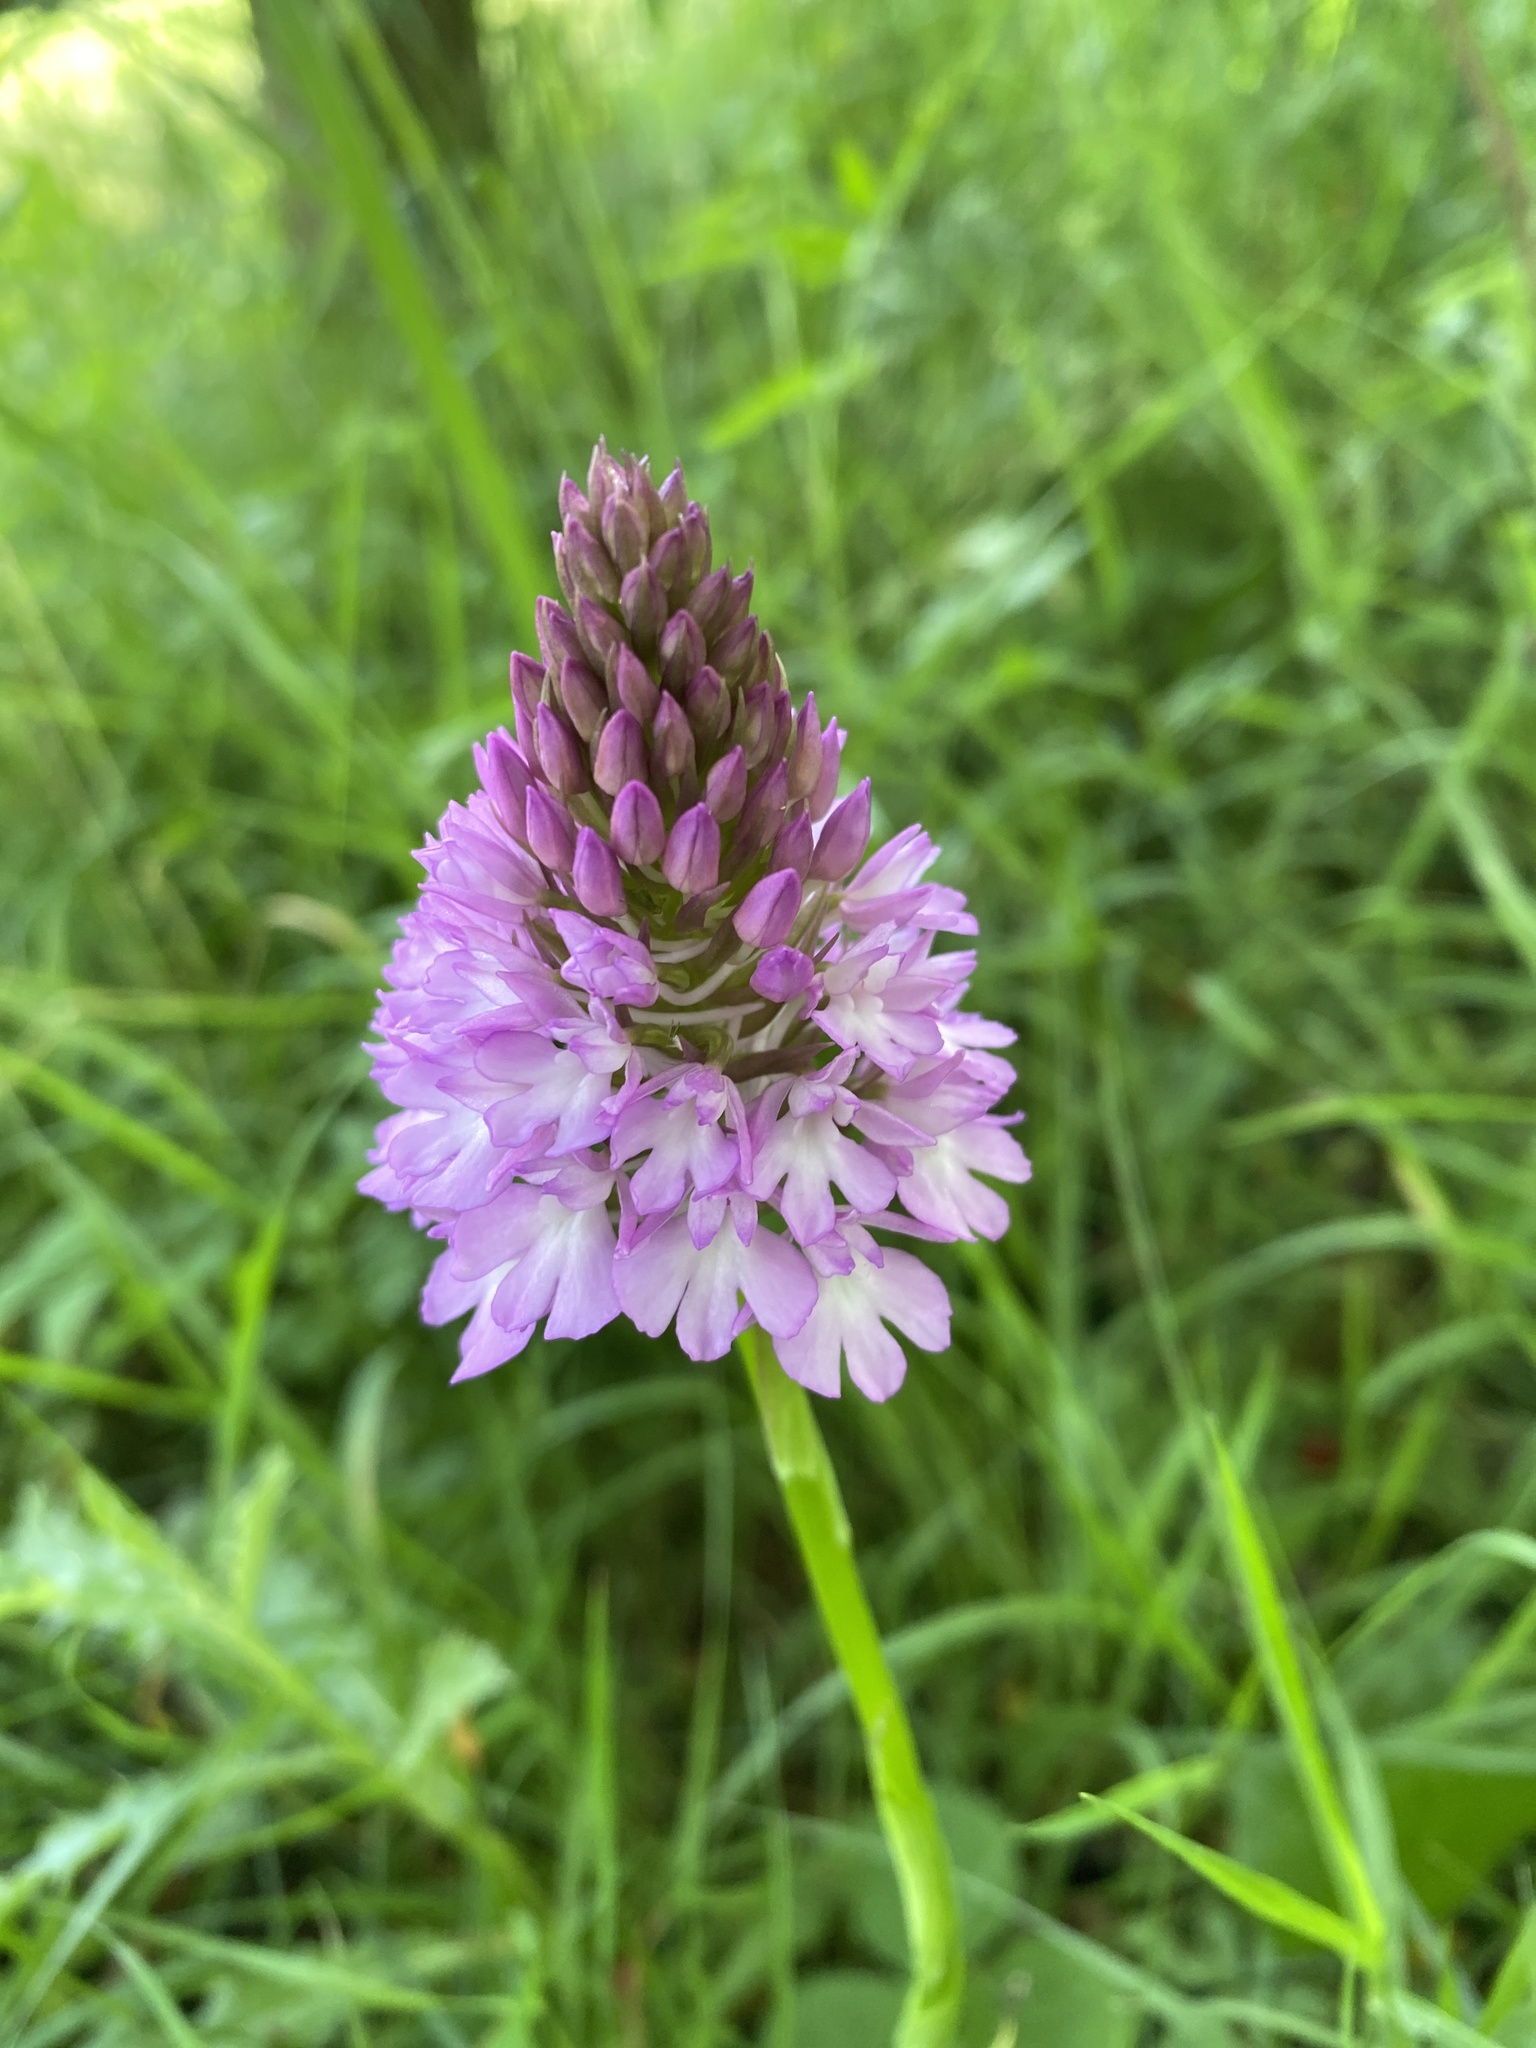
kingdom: Plantae
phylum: Tracheophyta
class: Liliopsida
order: Asparagales
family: Orchidaceae
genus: Anacamptis
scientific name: Anacamptis pyramidalis
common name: Pyramidal orchid
